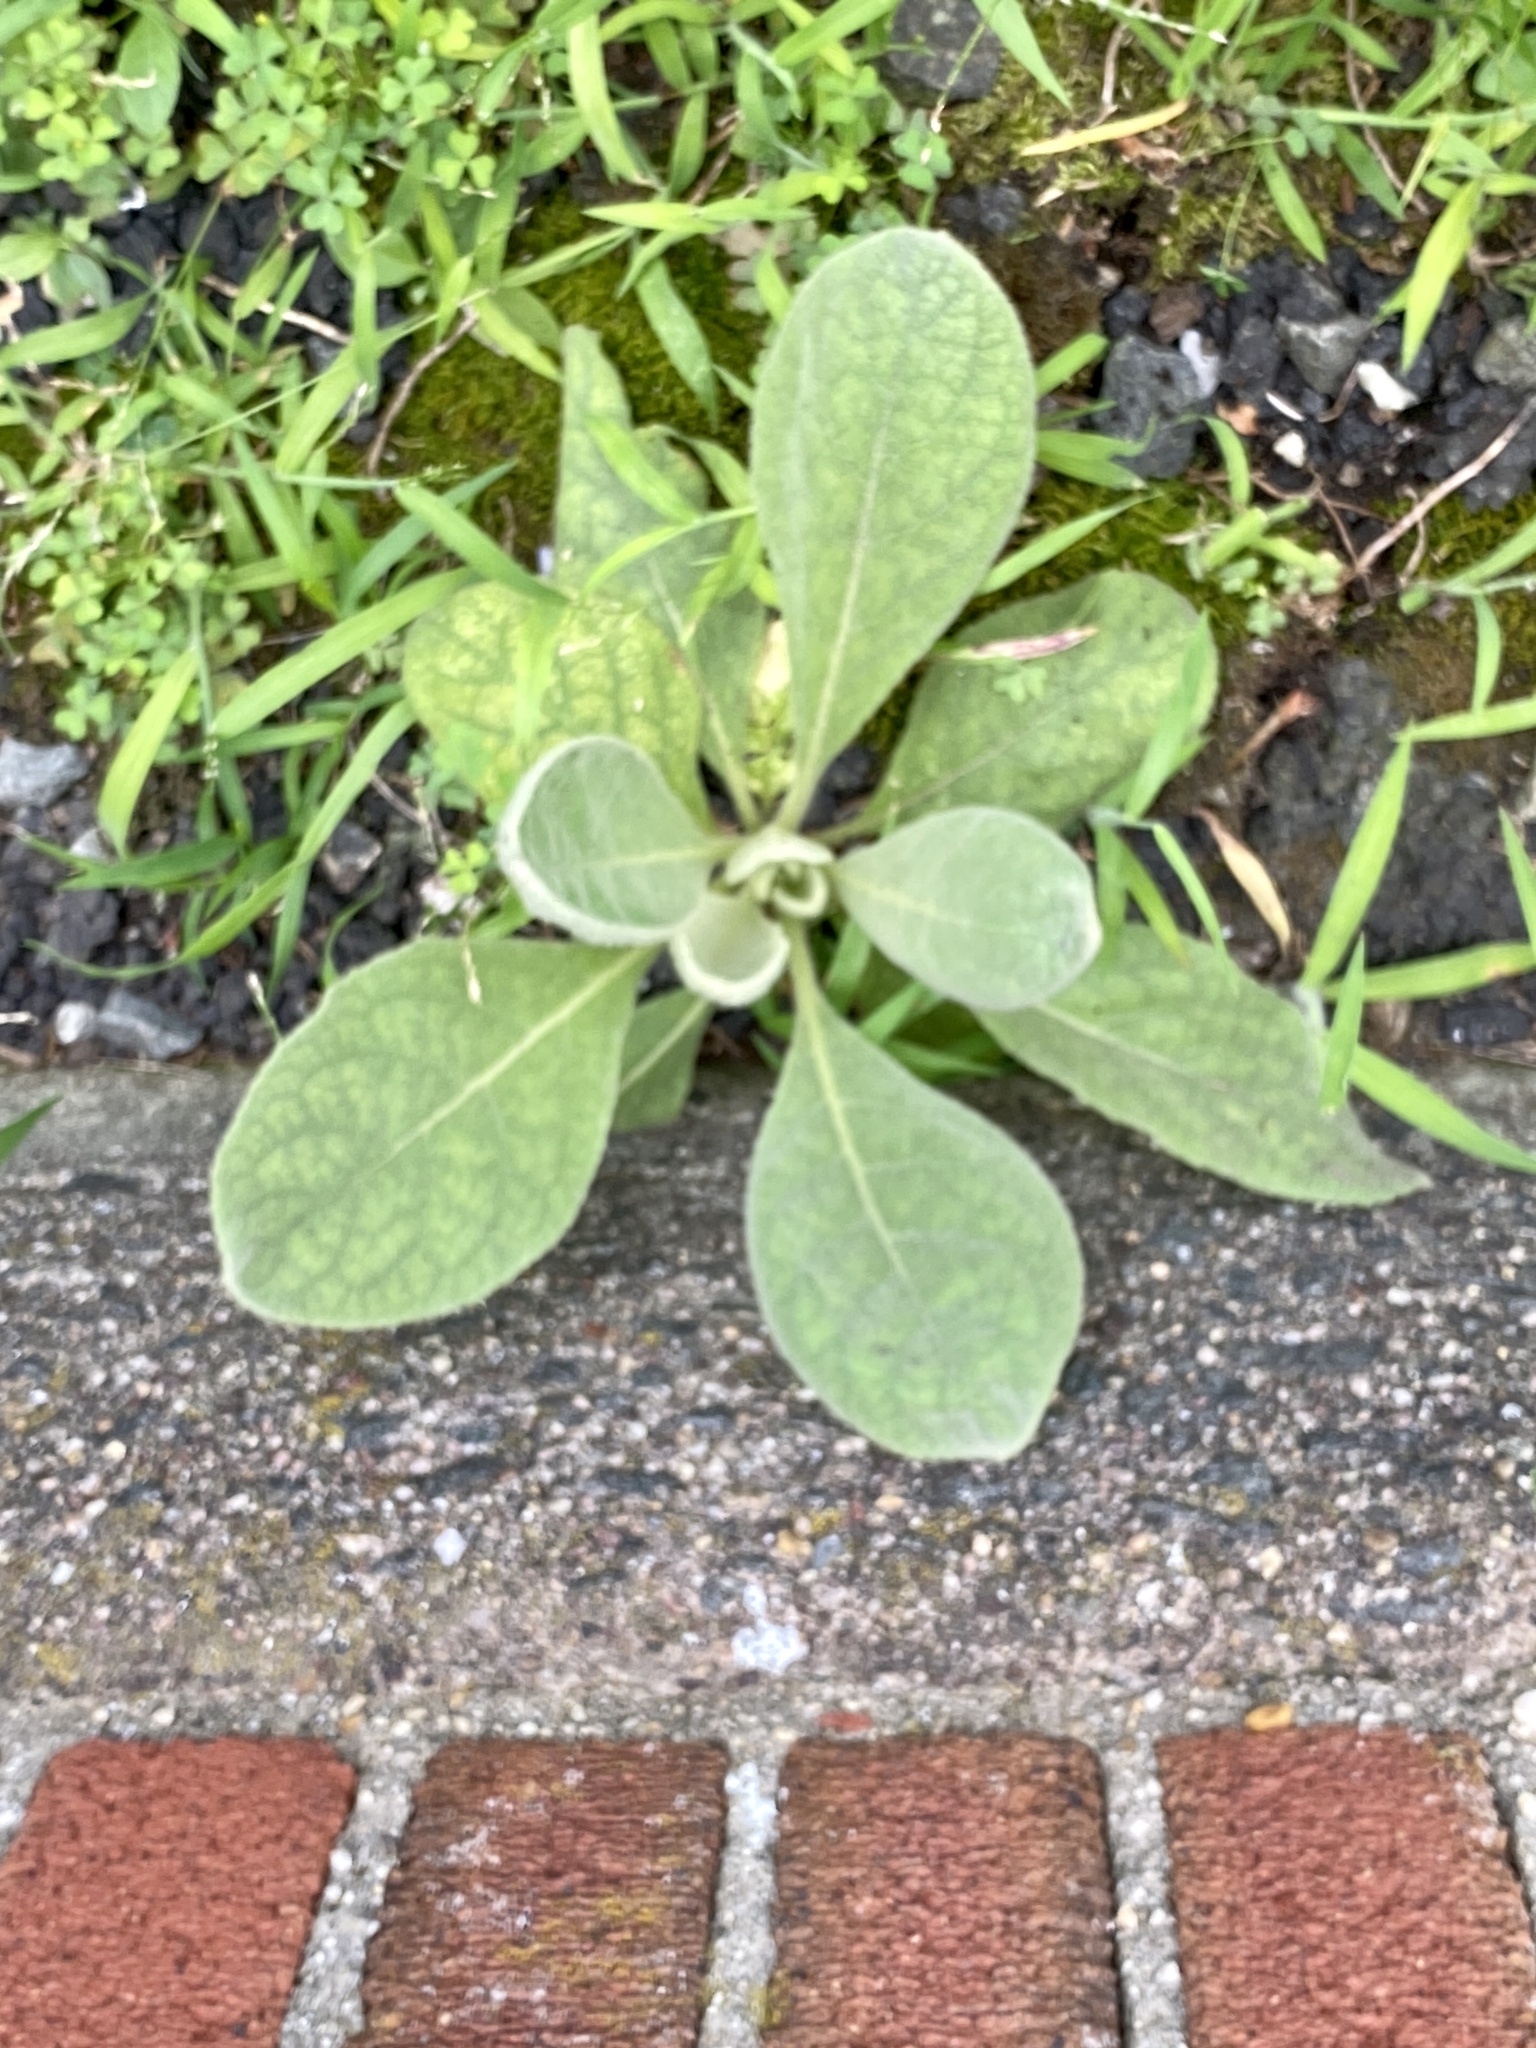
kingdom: Plantae
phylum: Tracheophyta
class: Magnoliopsida
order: Lamiales
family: Scrophulariaceae
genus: Verbascum
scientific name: Verbascum thapsus
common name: Common mullein
